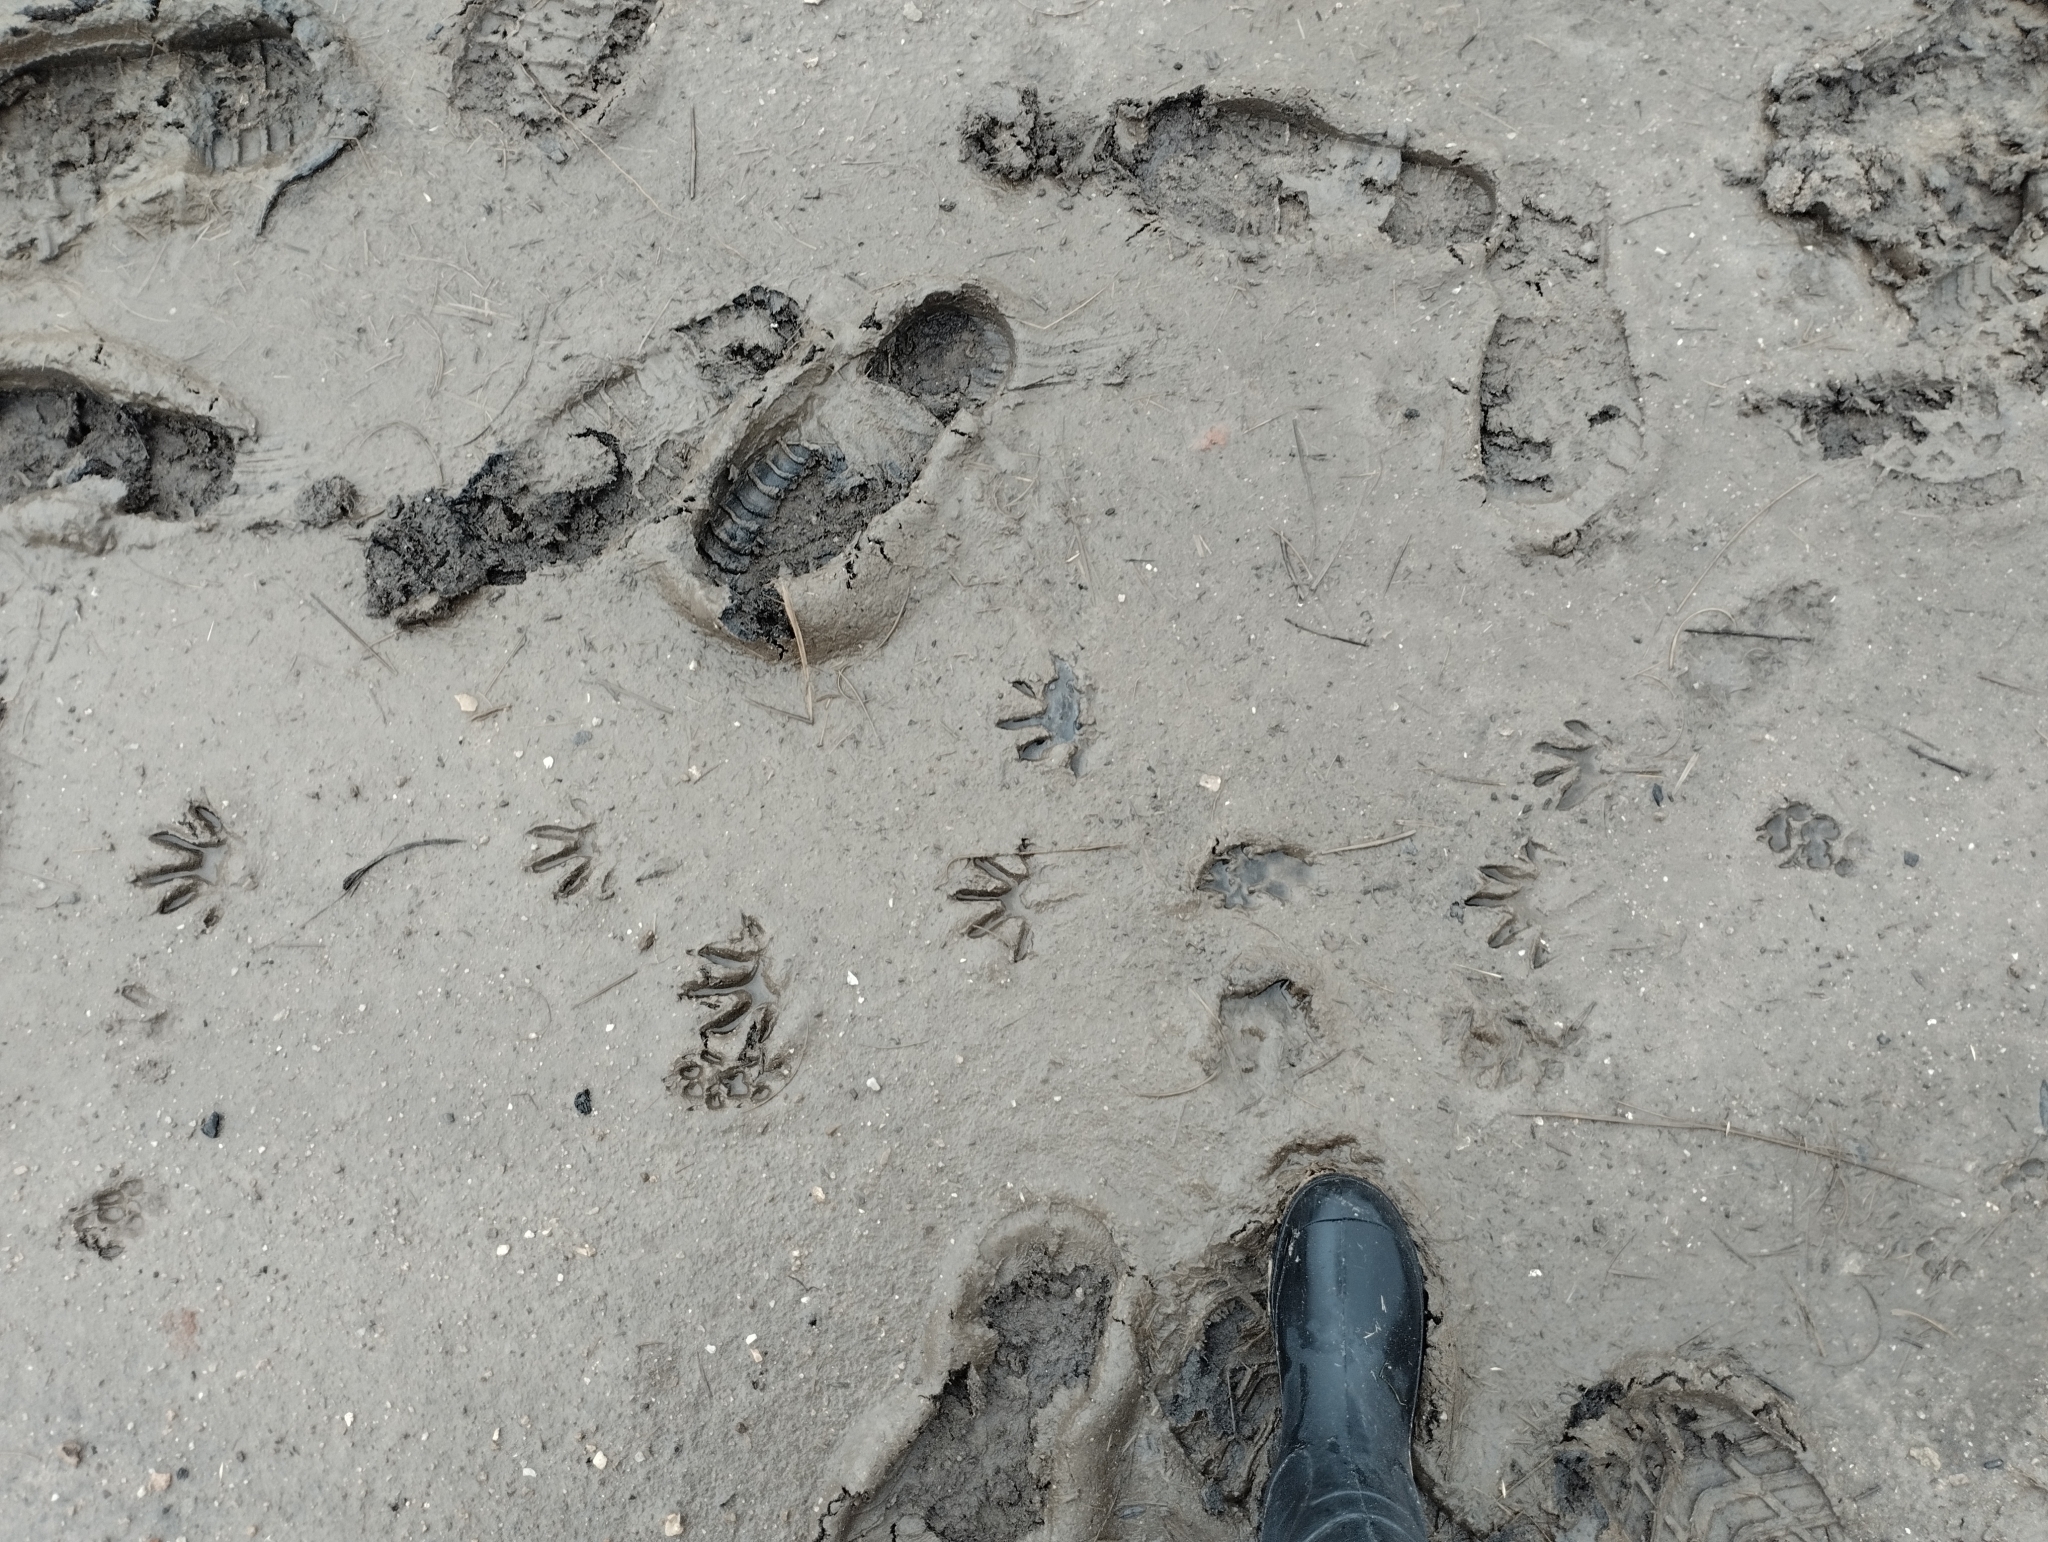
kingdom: Animalia
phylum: Chordata
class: Mammalia
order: Carnivora
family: Procyonidae
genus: Procyon
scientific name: Procyon cancrivorus
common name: Crab-eating raccoon
